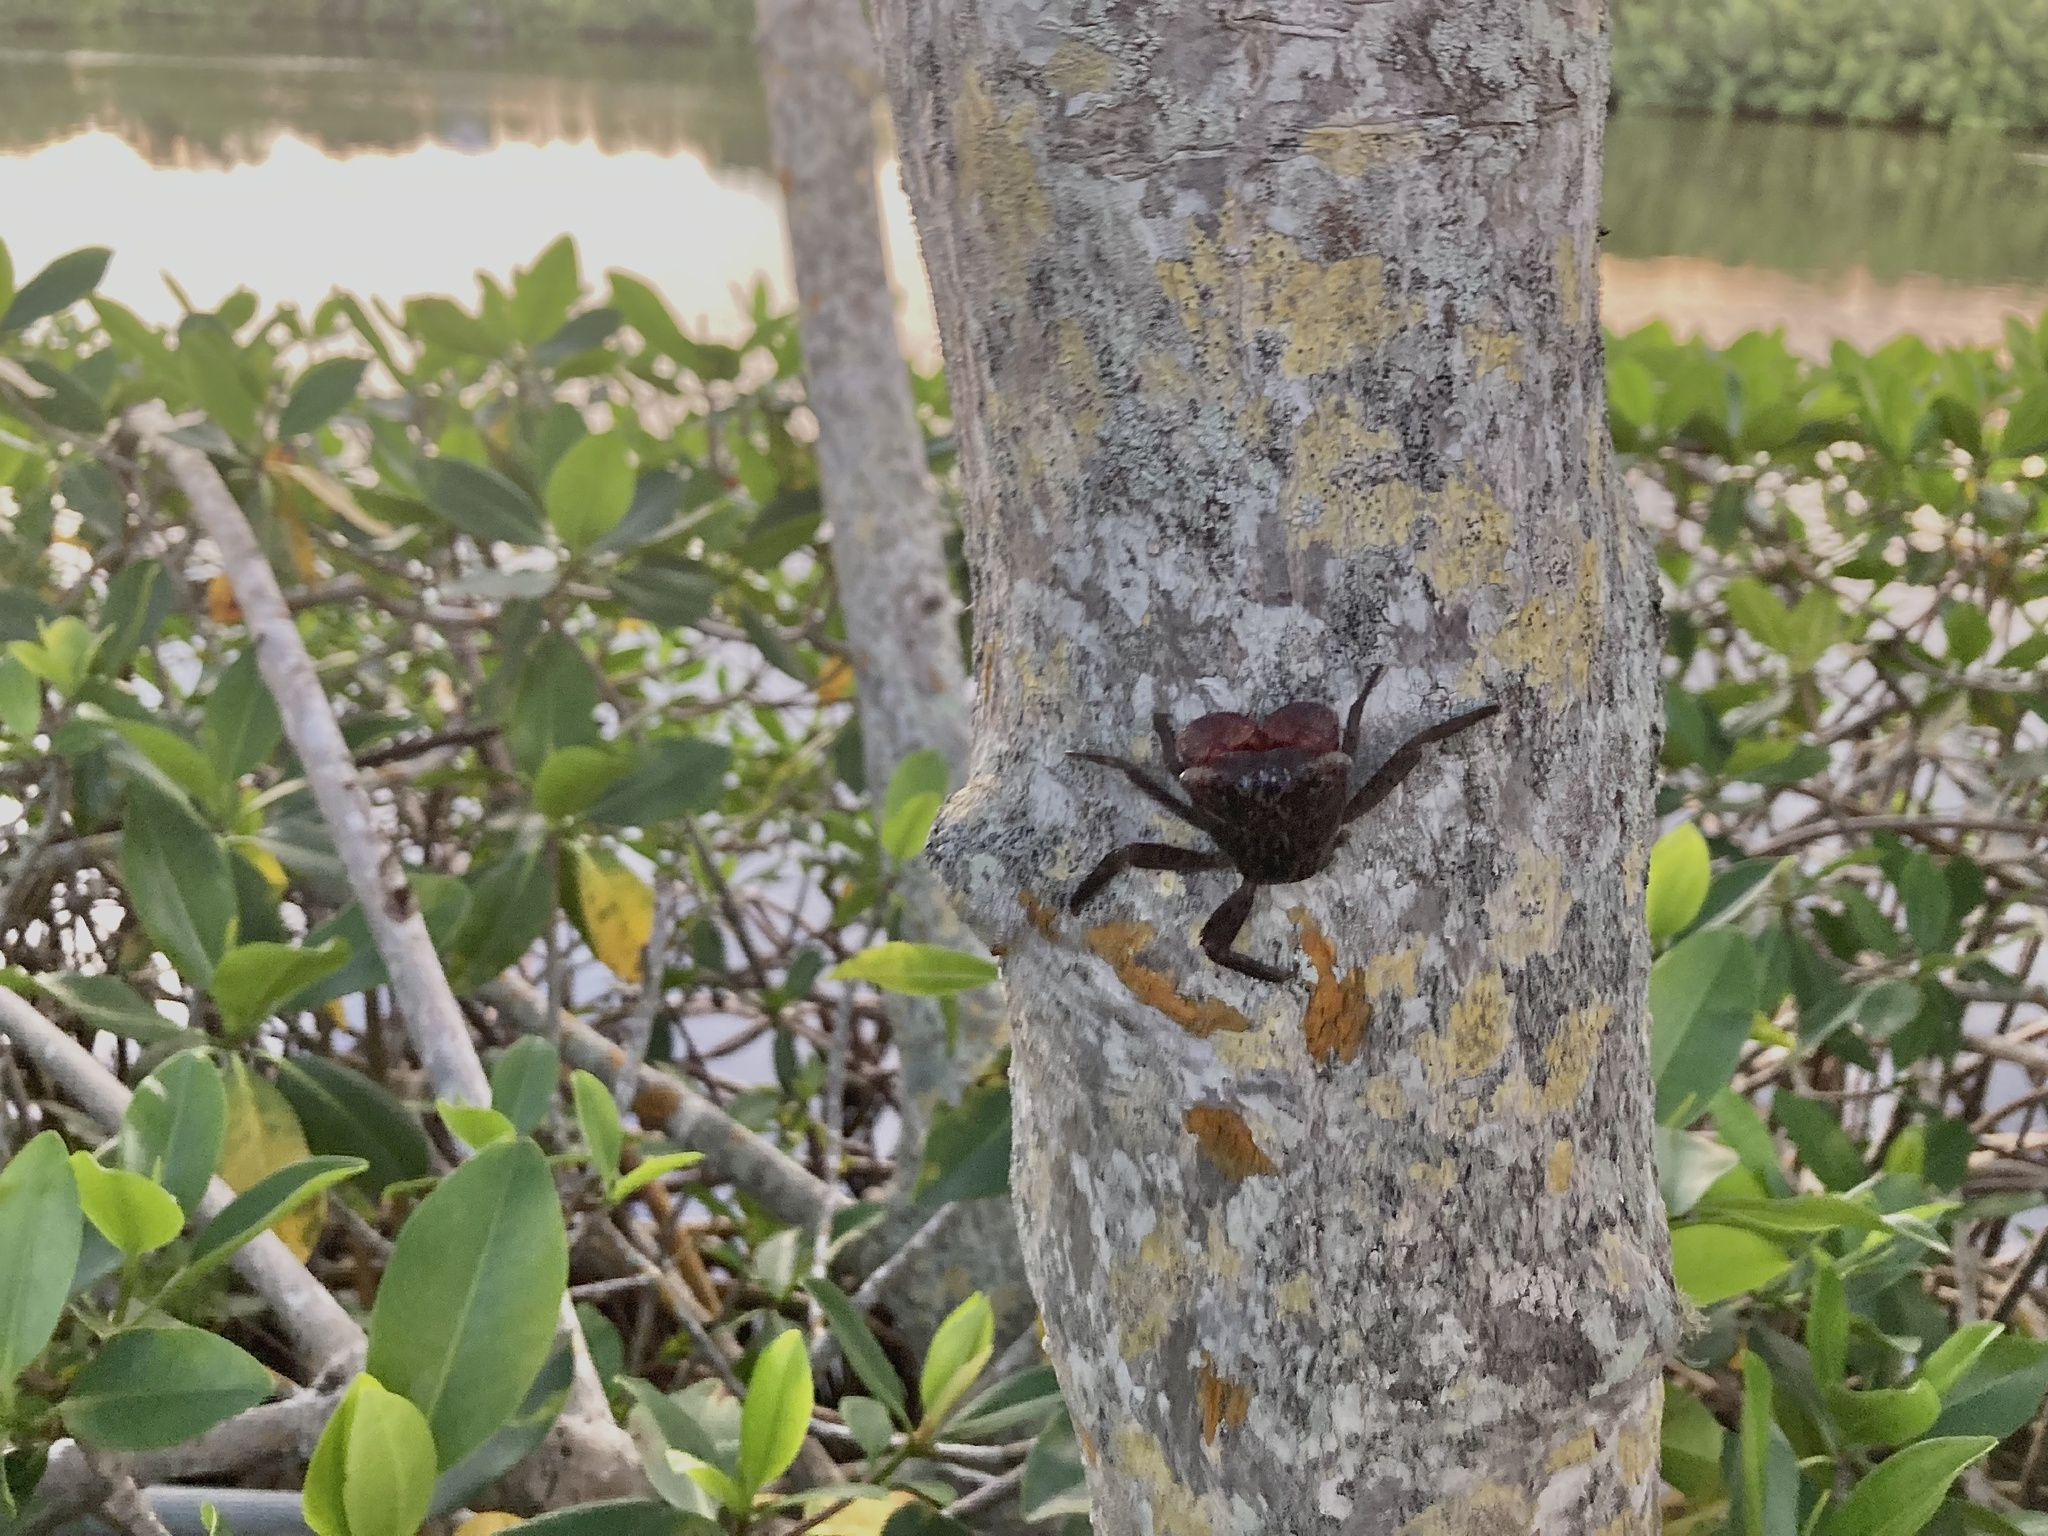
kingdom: Animalia
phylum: Arthropoda
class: Malacostraca
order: Decapoda
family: Sesarmidae
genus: Aratus
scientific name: Aratus pisonii
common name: Mangrove crab
